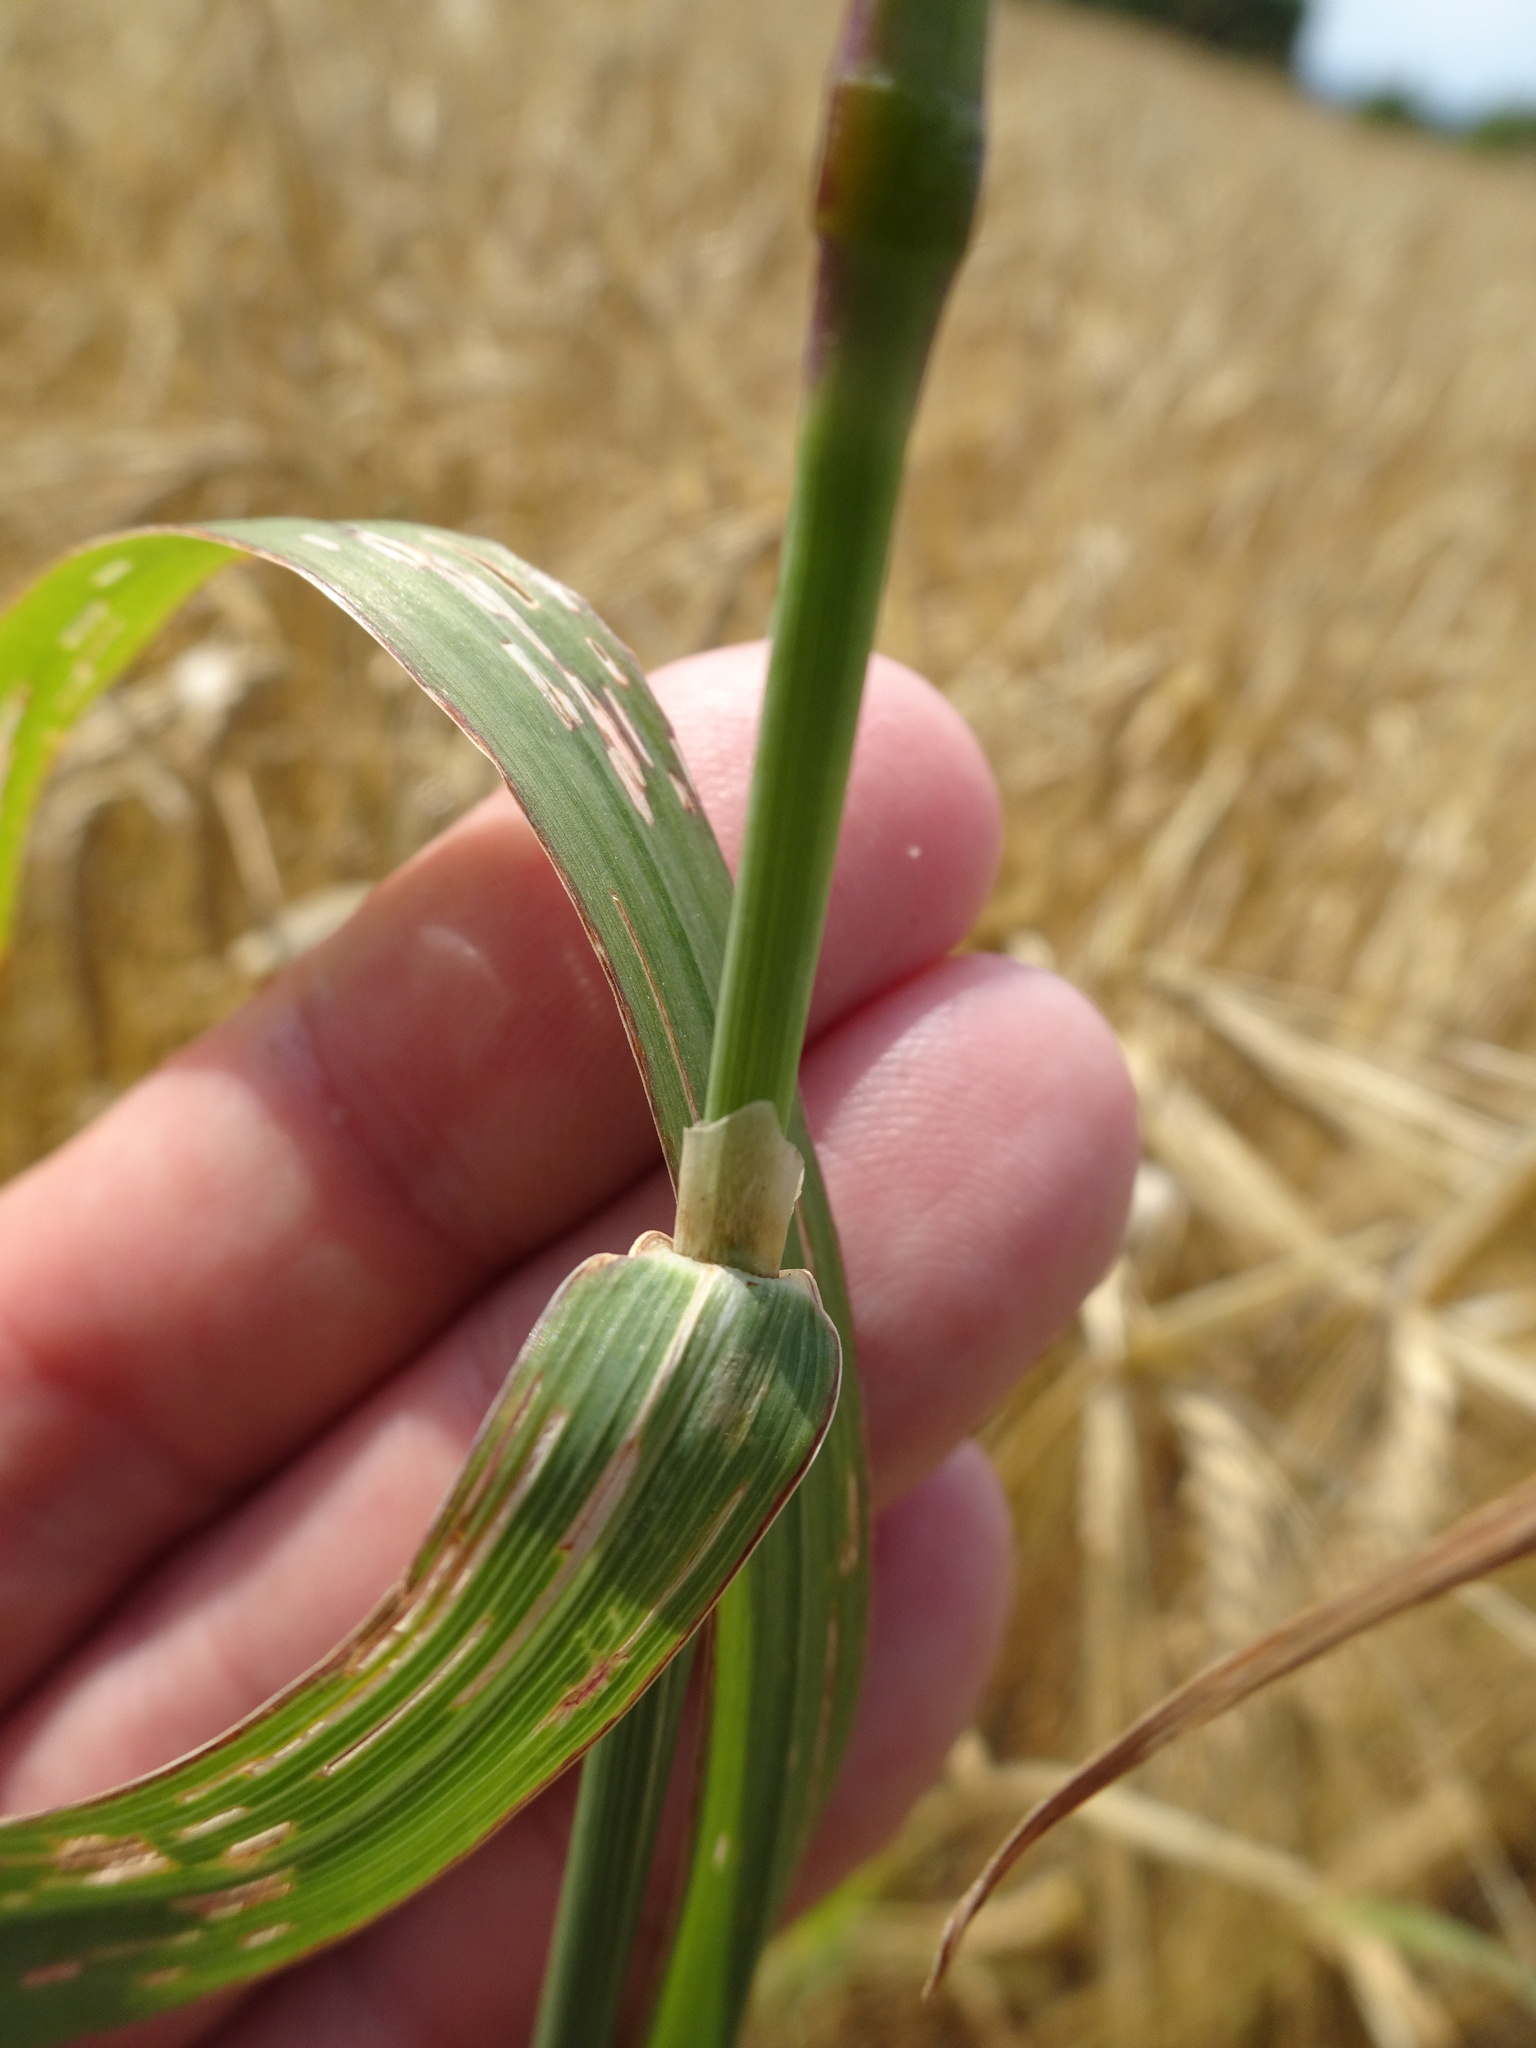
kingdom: Plantae
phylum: Tracheophyta
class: Liliopsida
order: Poales
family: Poaceae
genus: Phleum
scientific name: Phleum pratense
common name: Timothy grass
